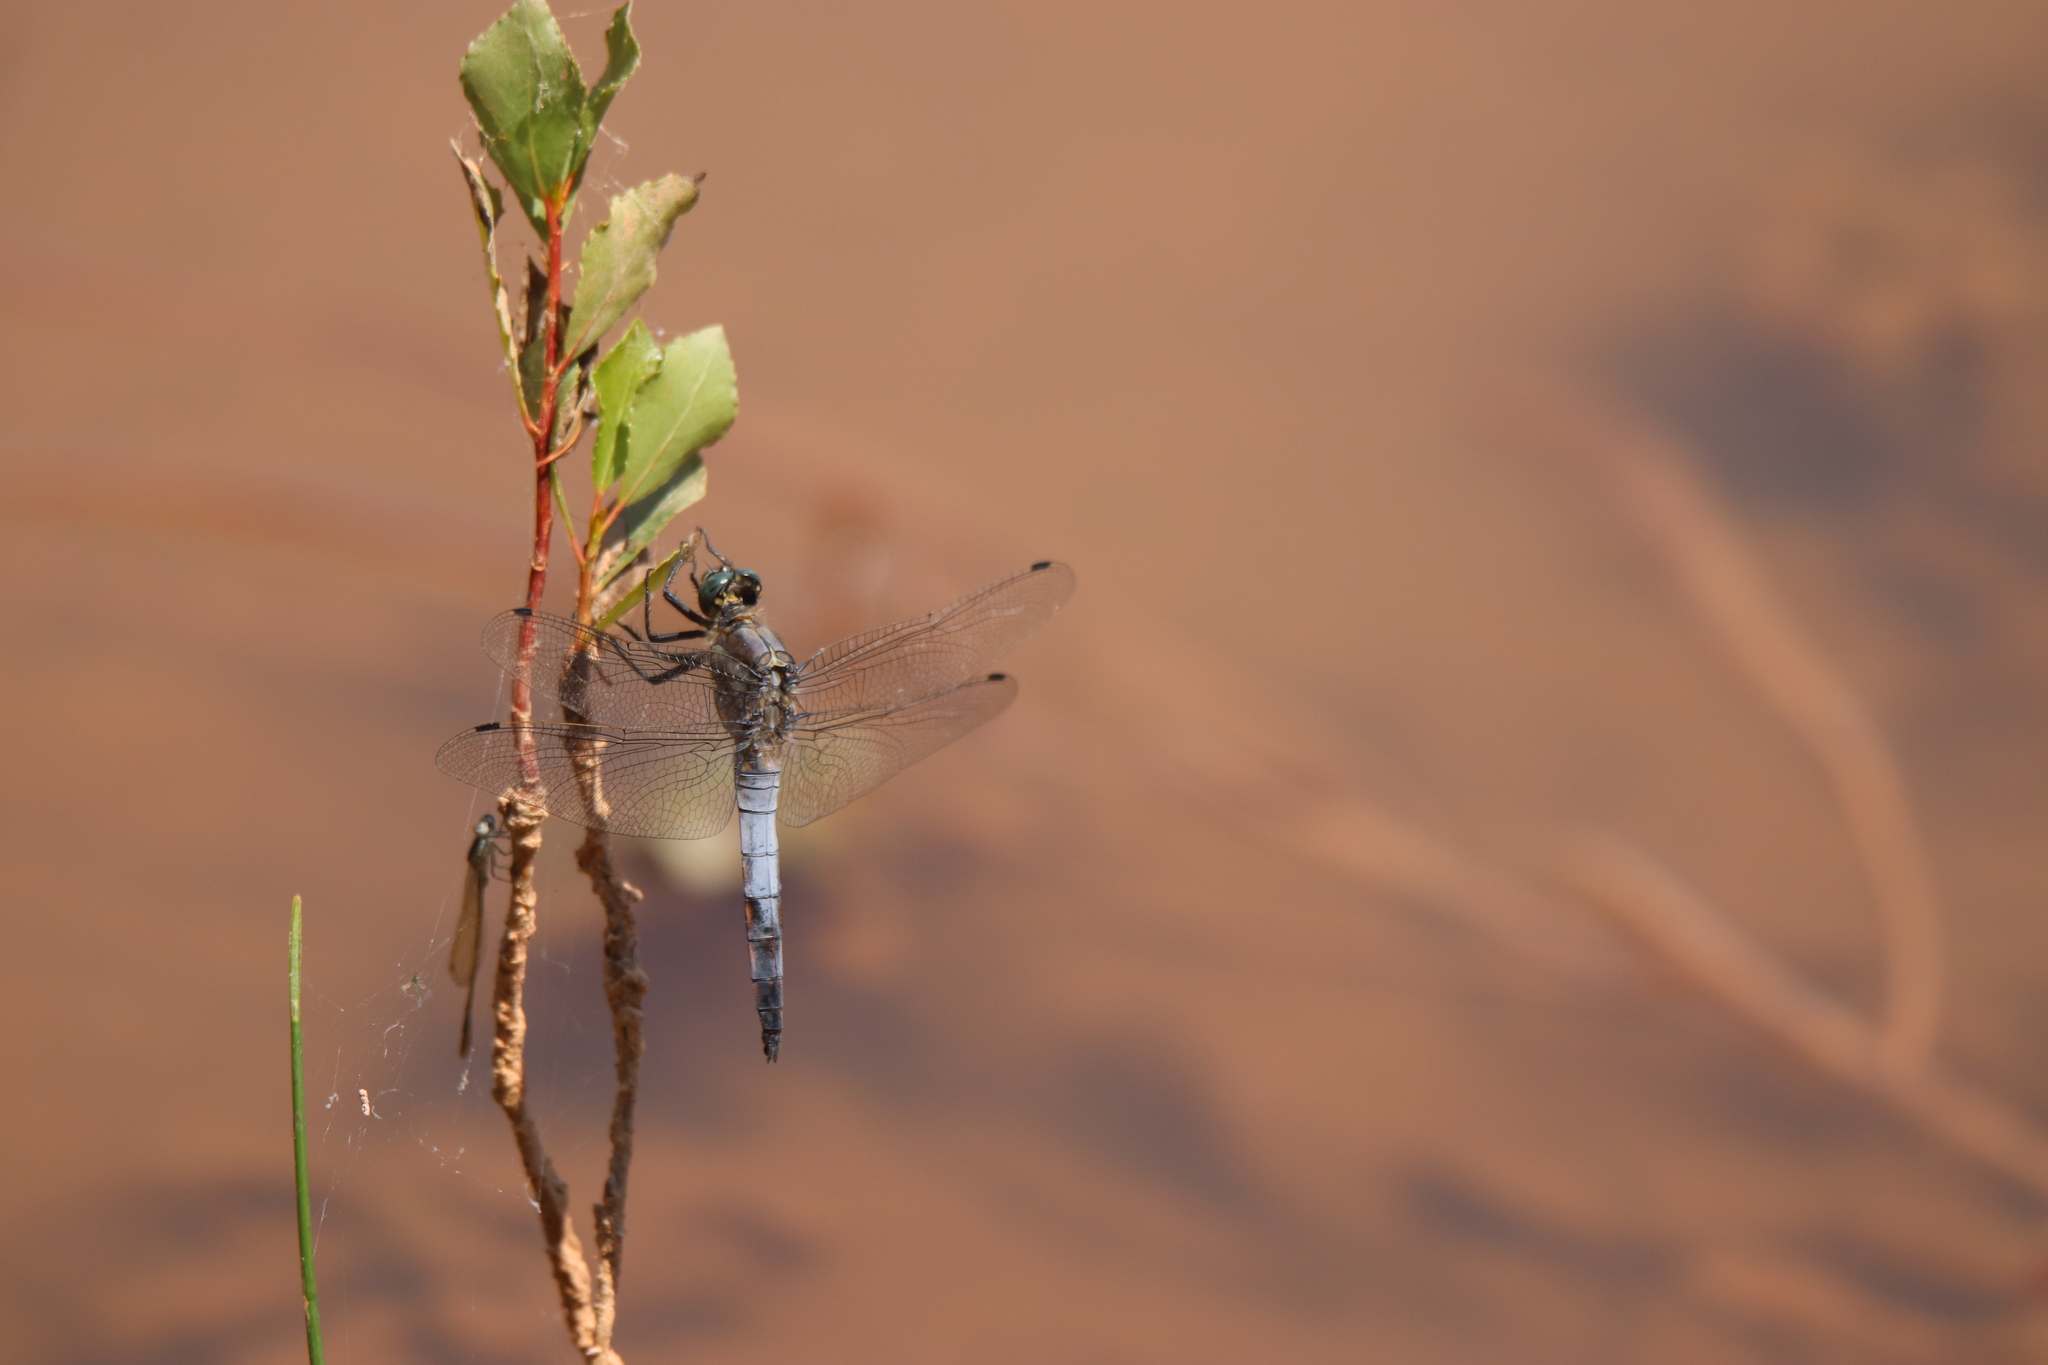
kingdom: Animalia
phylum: Arthropoda
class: Insecta
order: Odonata
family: Libellulidae
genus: Orthetrum
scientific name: Orthetrum cancellatum
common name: Black-tailed skimmer
